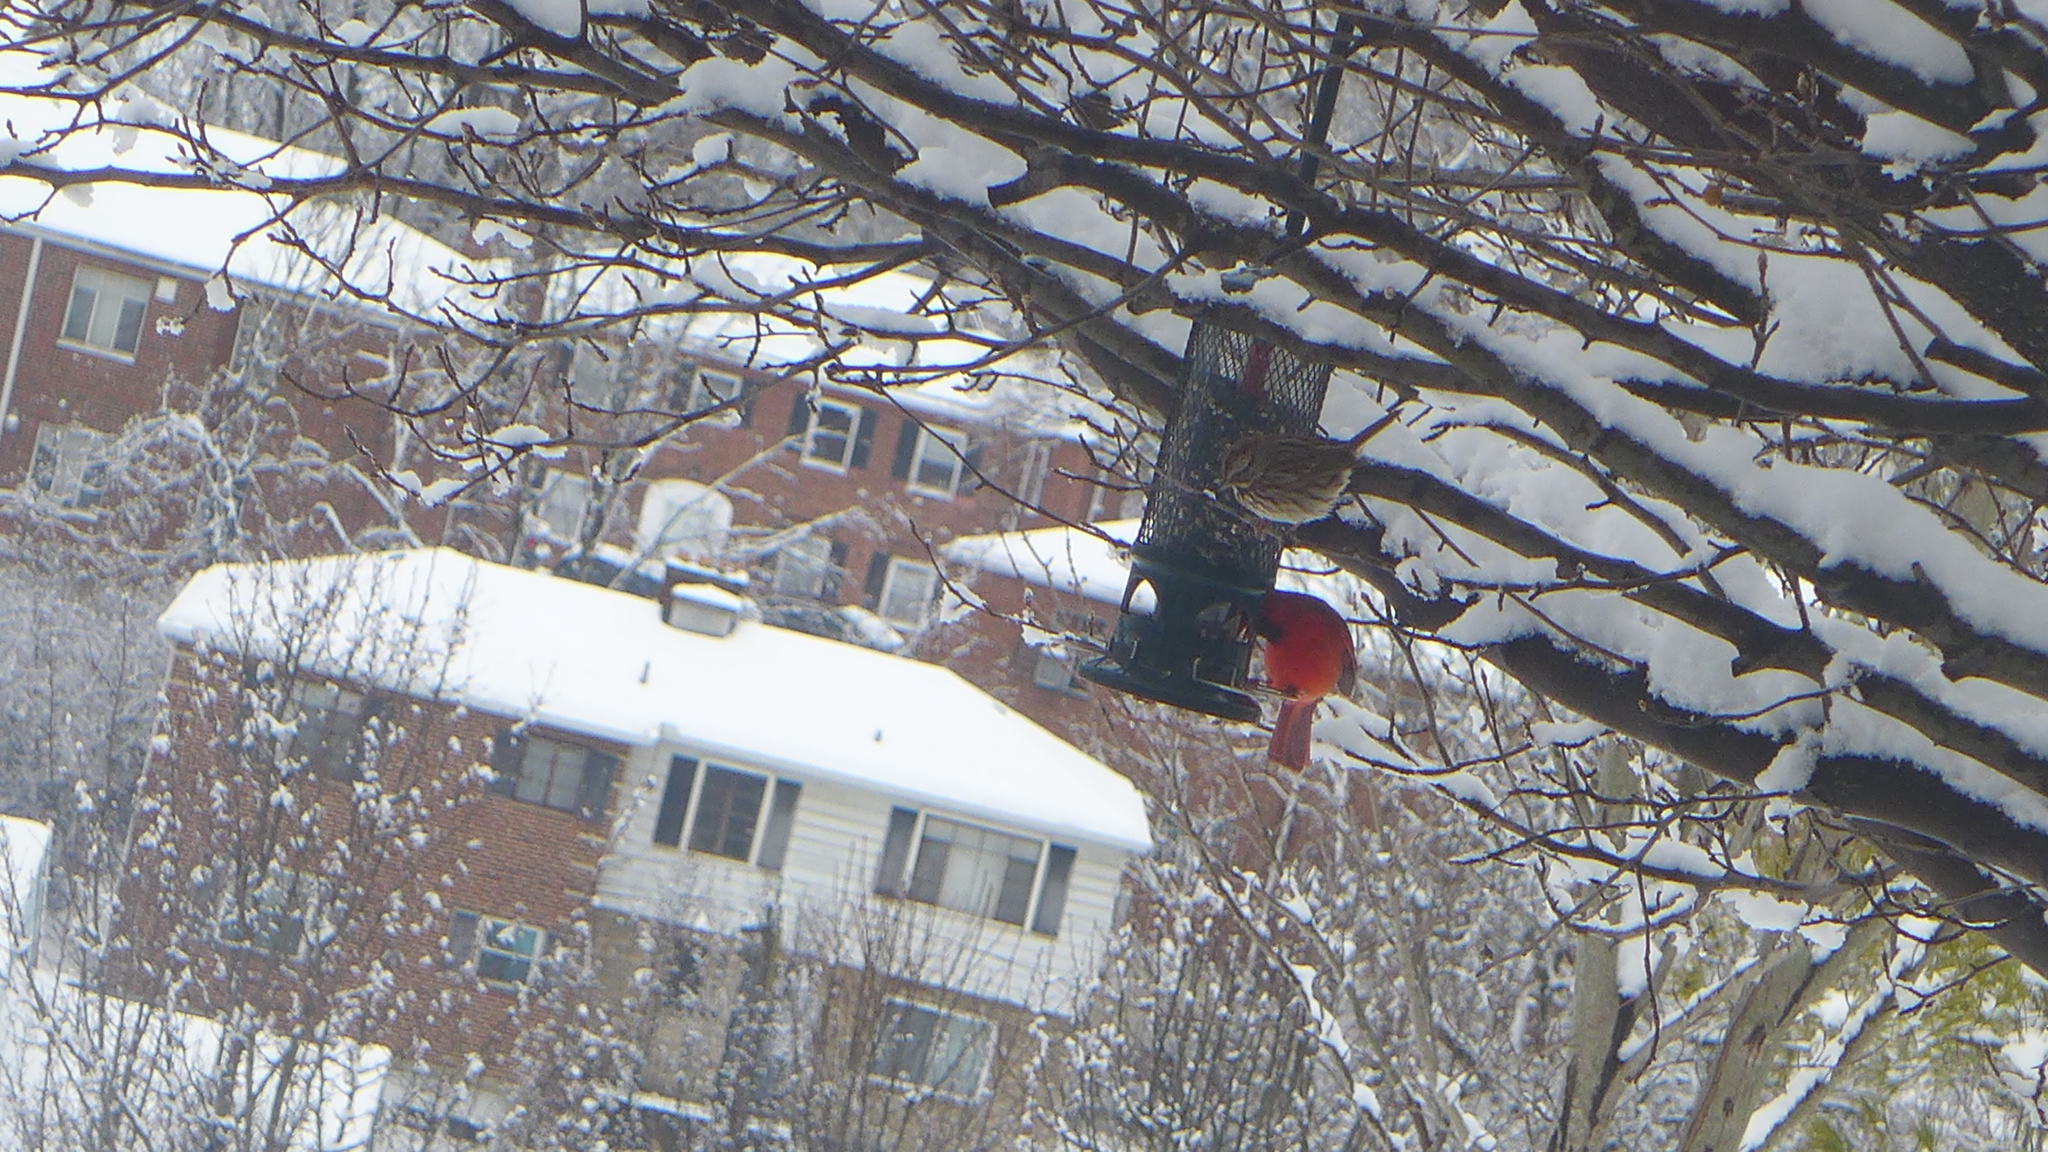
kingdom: Animalia
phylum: Chordata
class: Aves
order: Passeriformes
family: Passerellidae
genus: Melospiza
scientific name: Melospiza melodia
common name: Song sparrow
